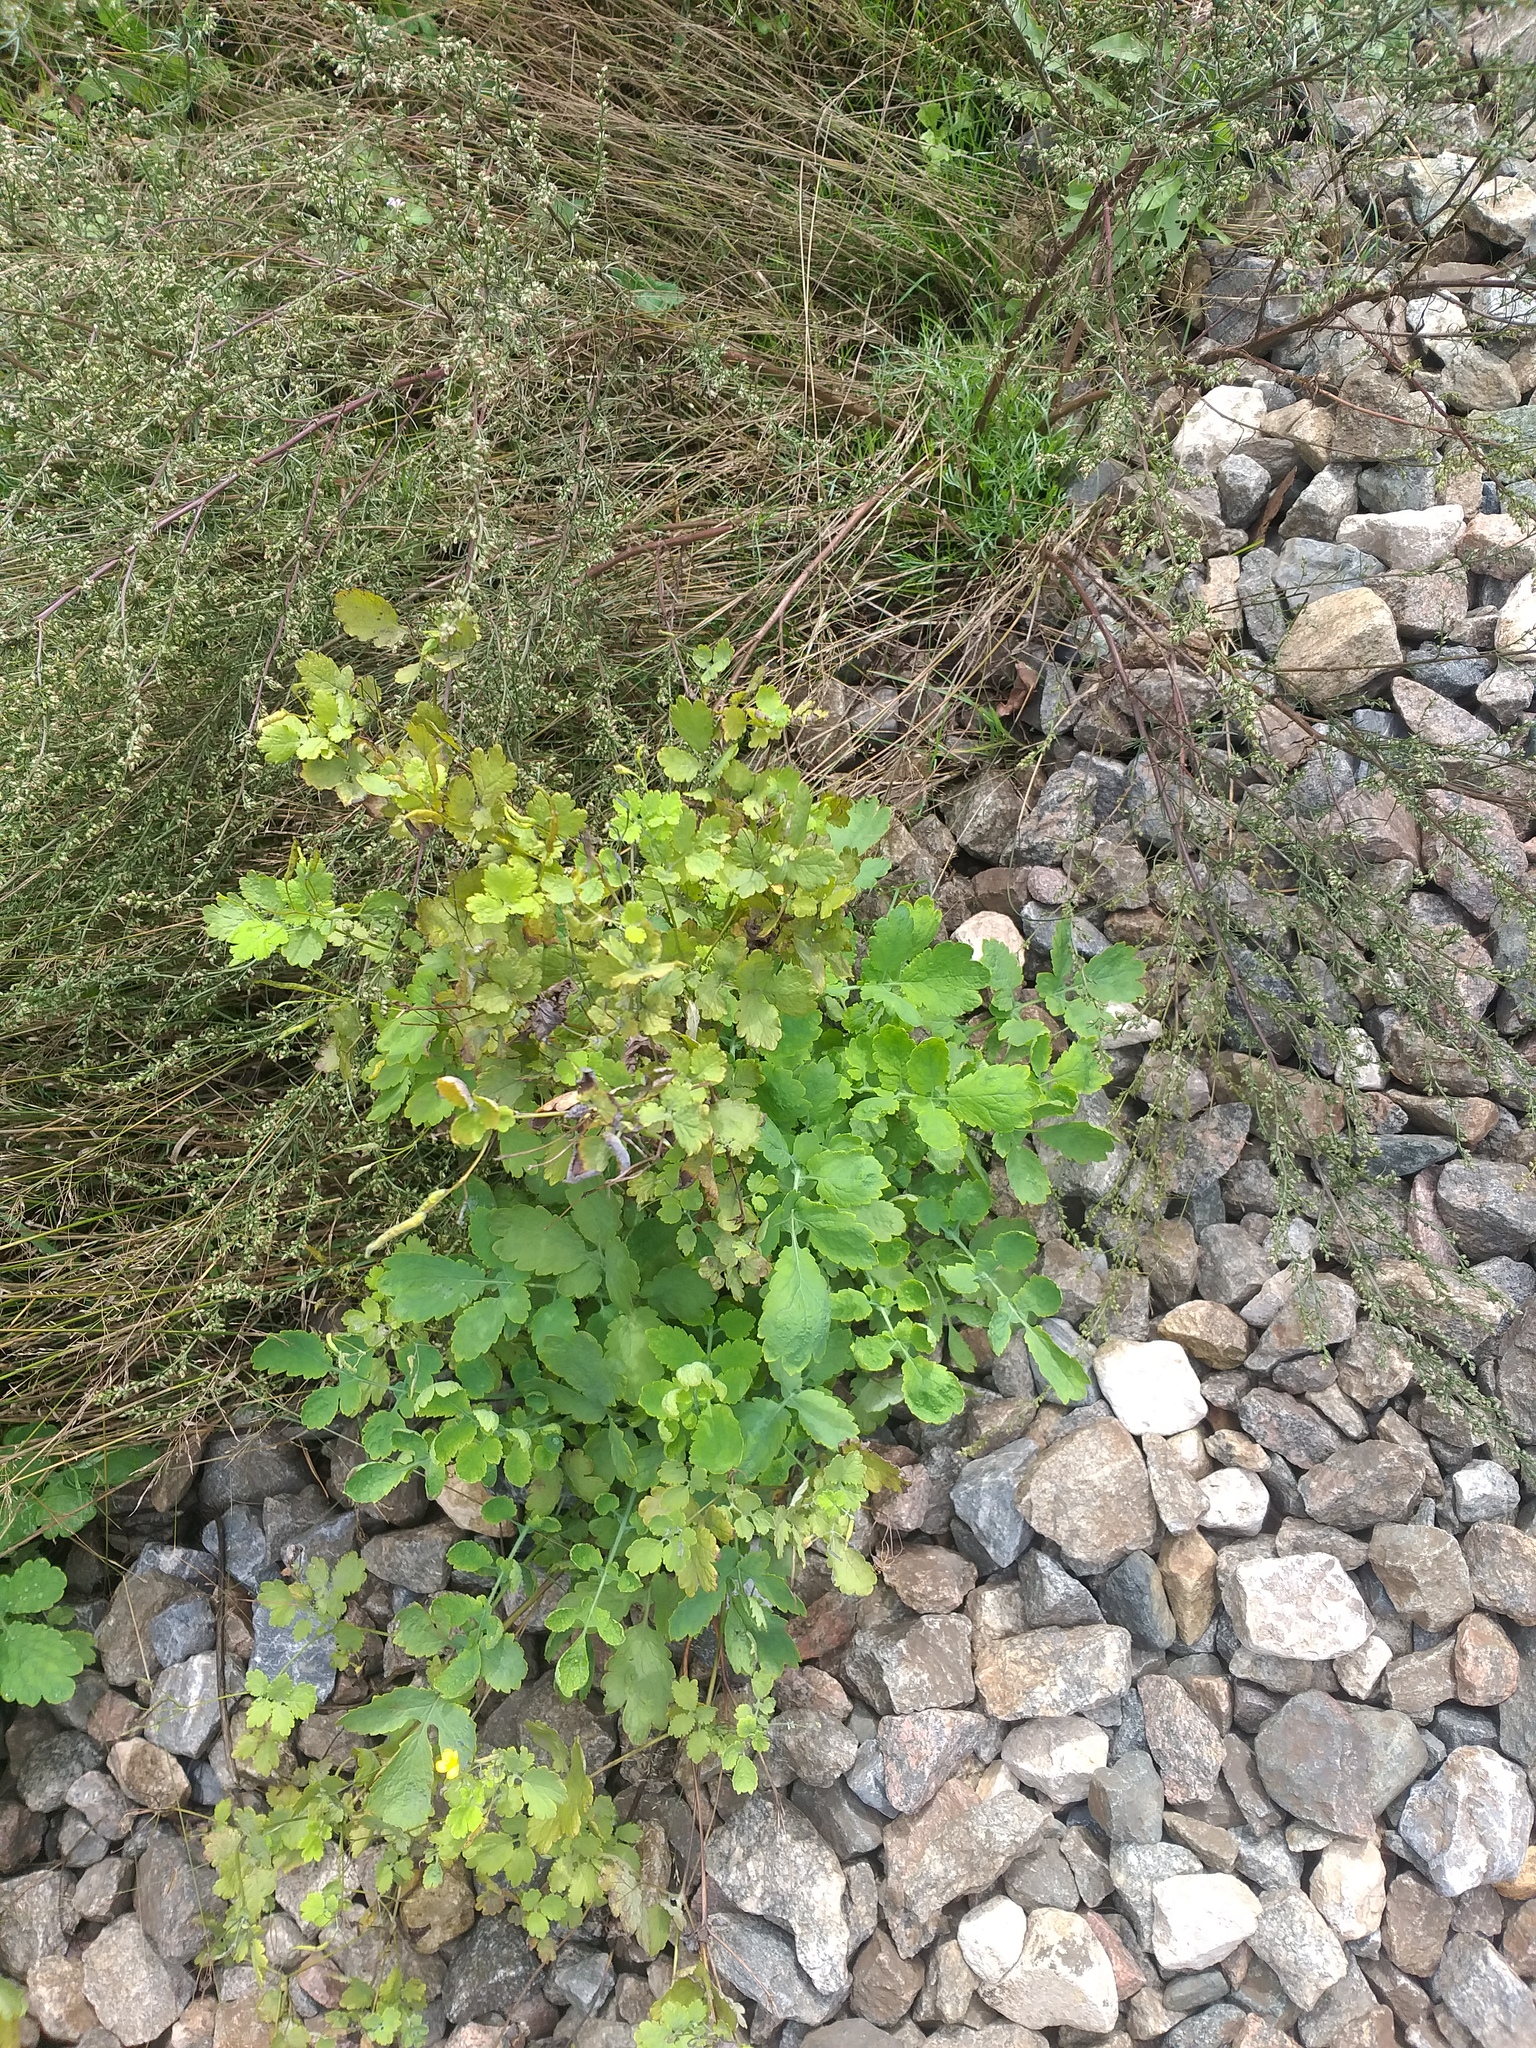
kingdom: Plantae
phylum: Tracheophyta
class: Magnoliopsida
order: Ranunculales
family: Papaveraceae
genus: Chelidonium
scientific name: Chelidonium majus
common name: Greater celandine
